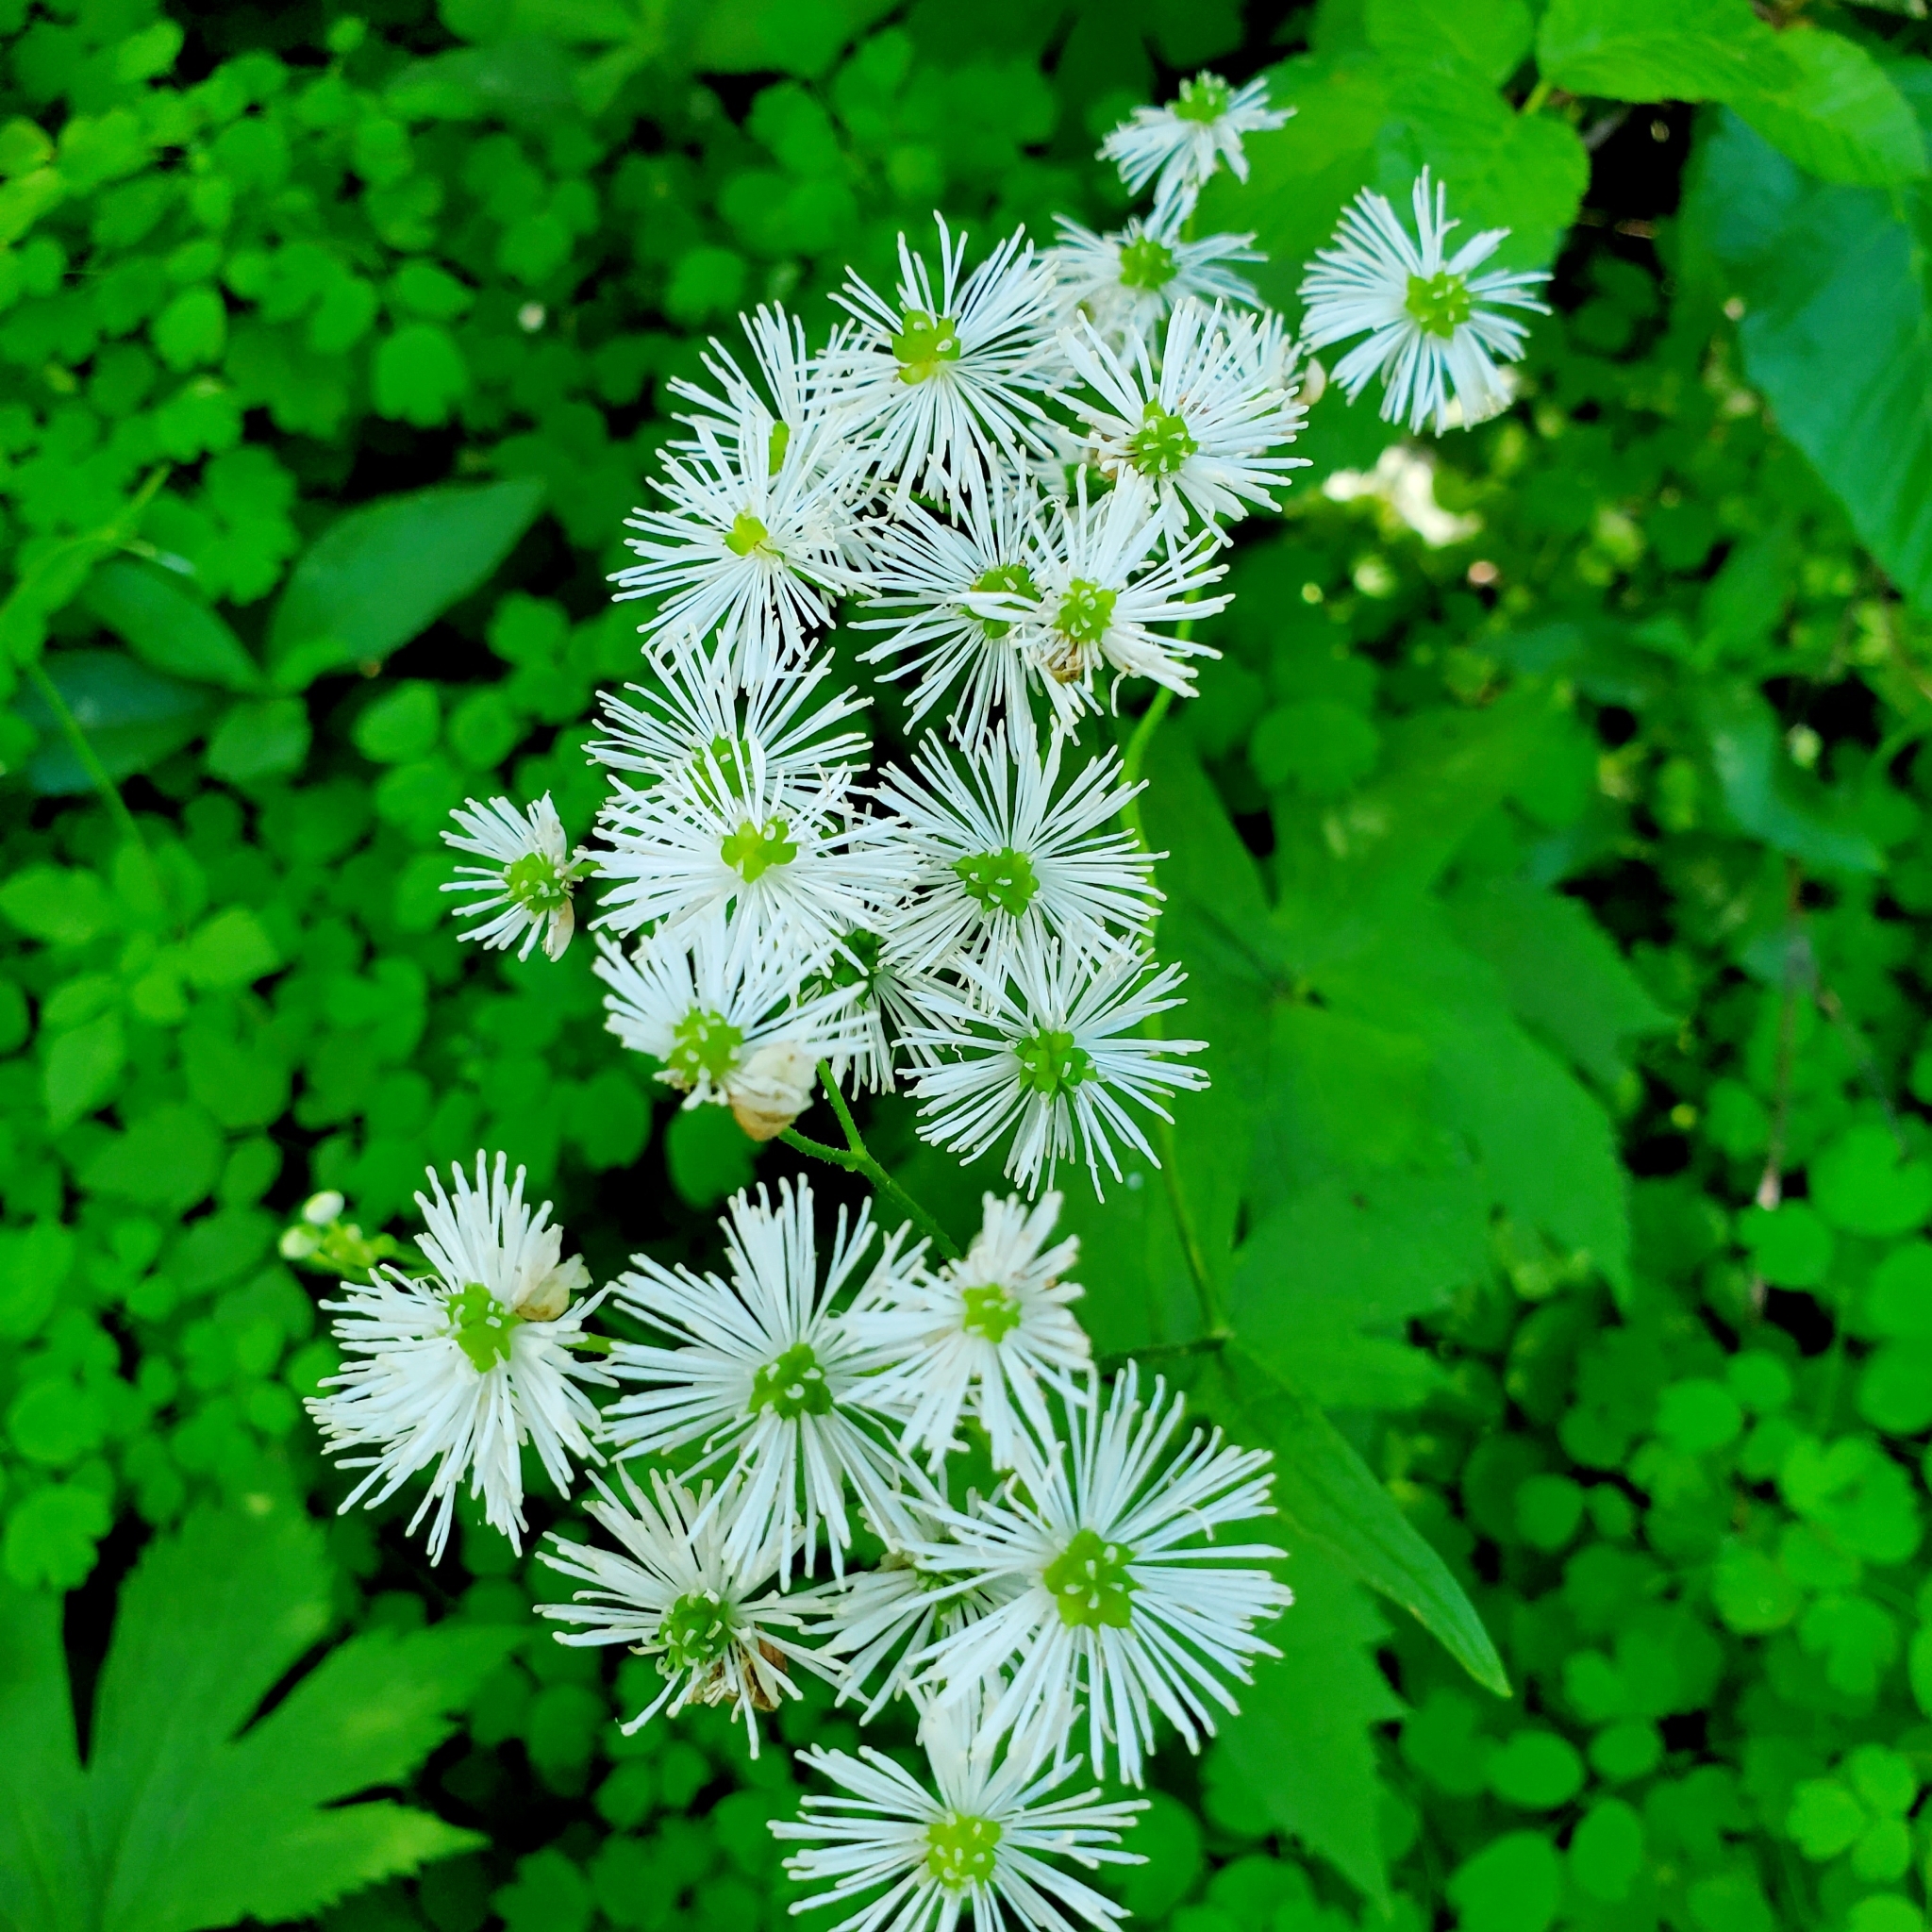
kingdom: Plantae
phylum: Tracheophyta
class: Magnoliopsida
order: Ranunculales
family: Ranunculaceae
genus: Trautvetteria
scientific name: Trautvetteria carolinensis
